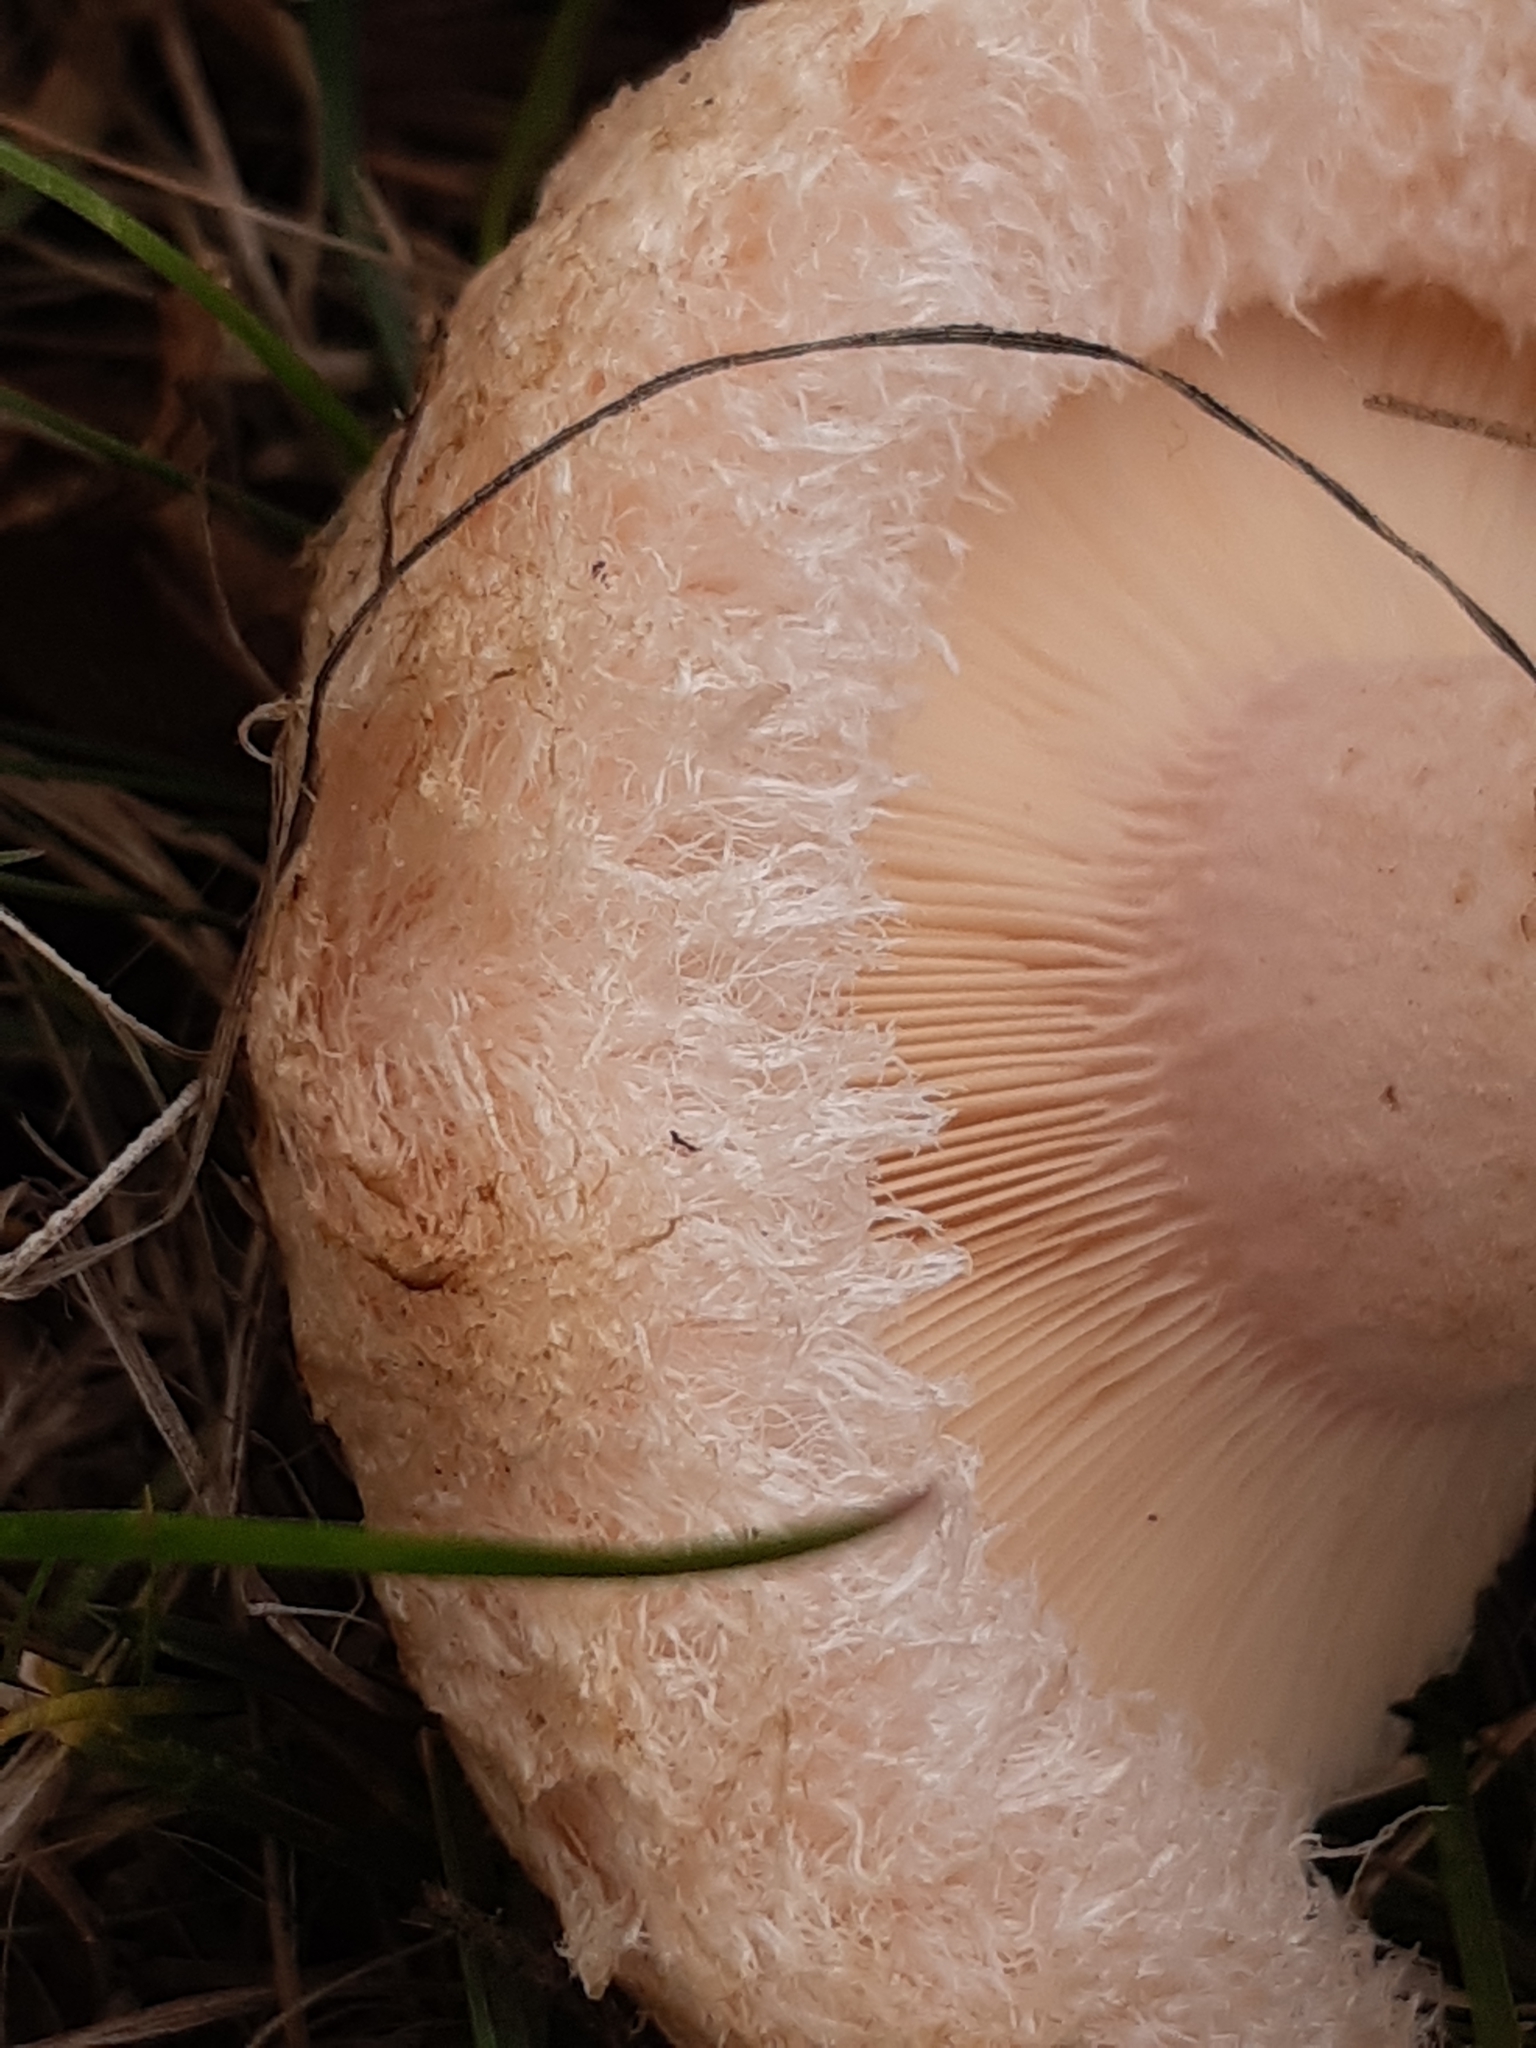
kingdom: Fungi
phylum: Basidiomycota
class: Agaricomycetes
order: Russulales
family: Russulaceae
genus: Lactarius
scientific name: Lactarius pubescens
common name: Bearded milkcap
